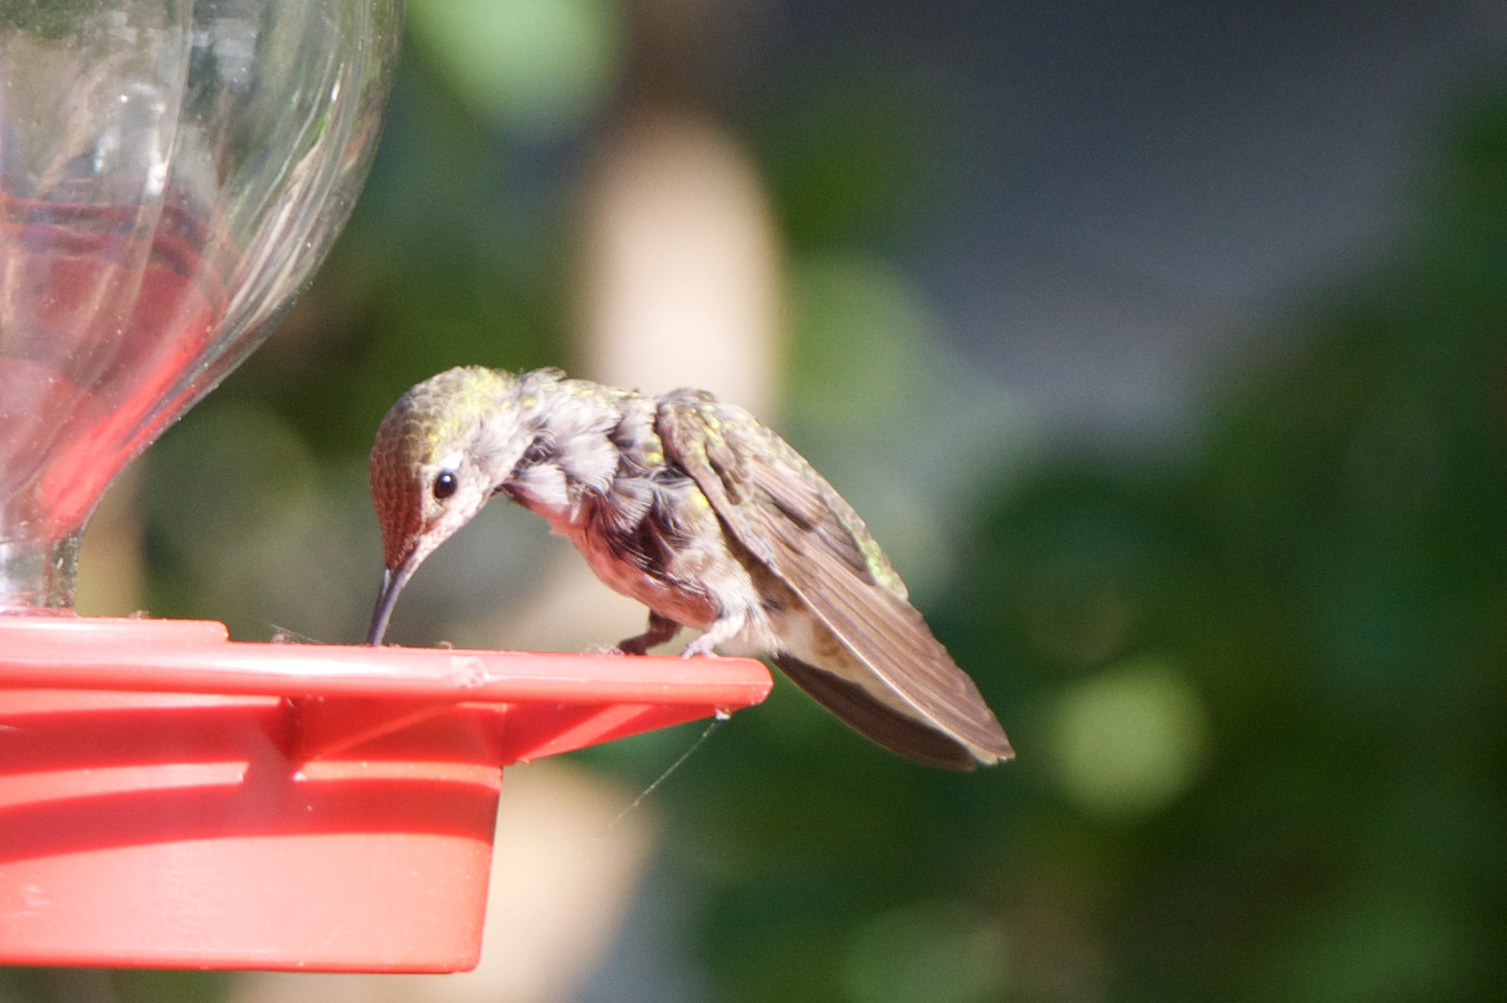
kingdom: Animalia
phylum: Chordata
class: Aves
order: Apodiformes
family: Trochilidae
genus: Calypte
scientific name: Calypte anna
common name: Anna's hummingbird
